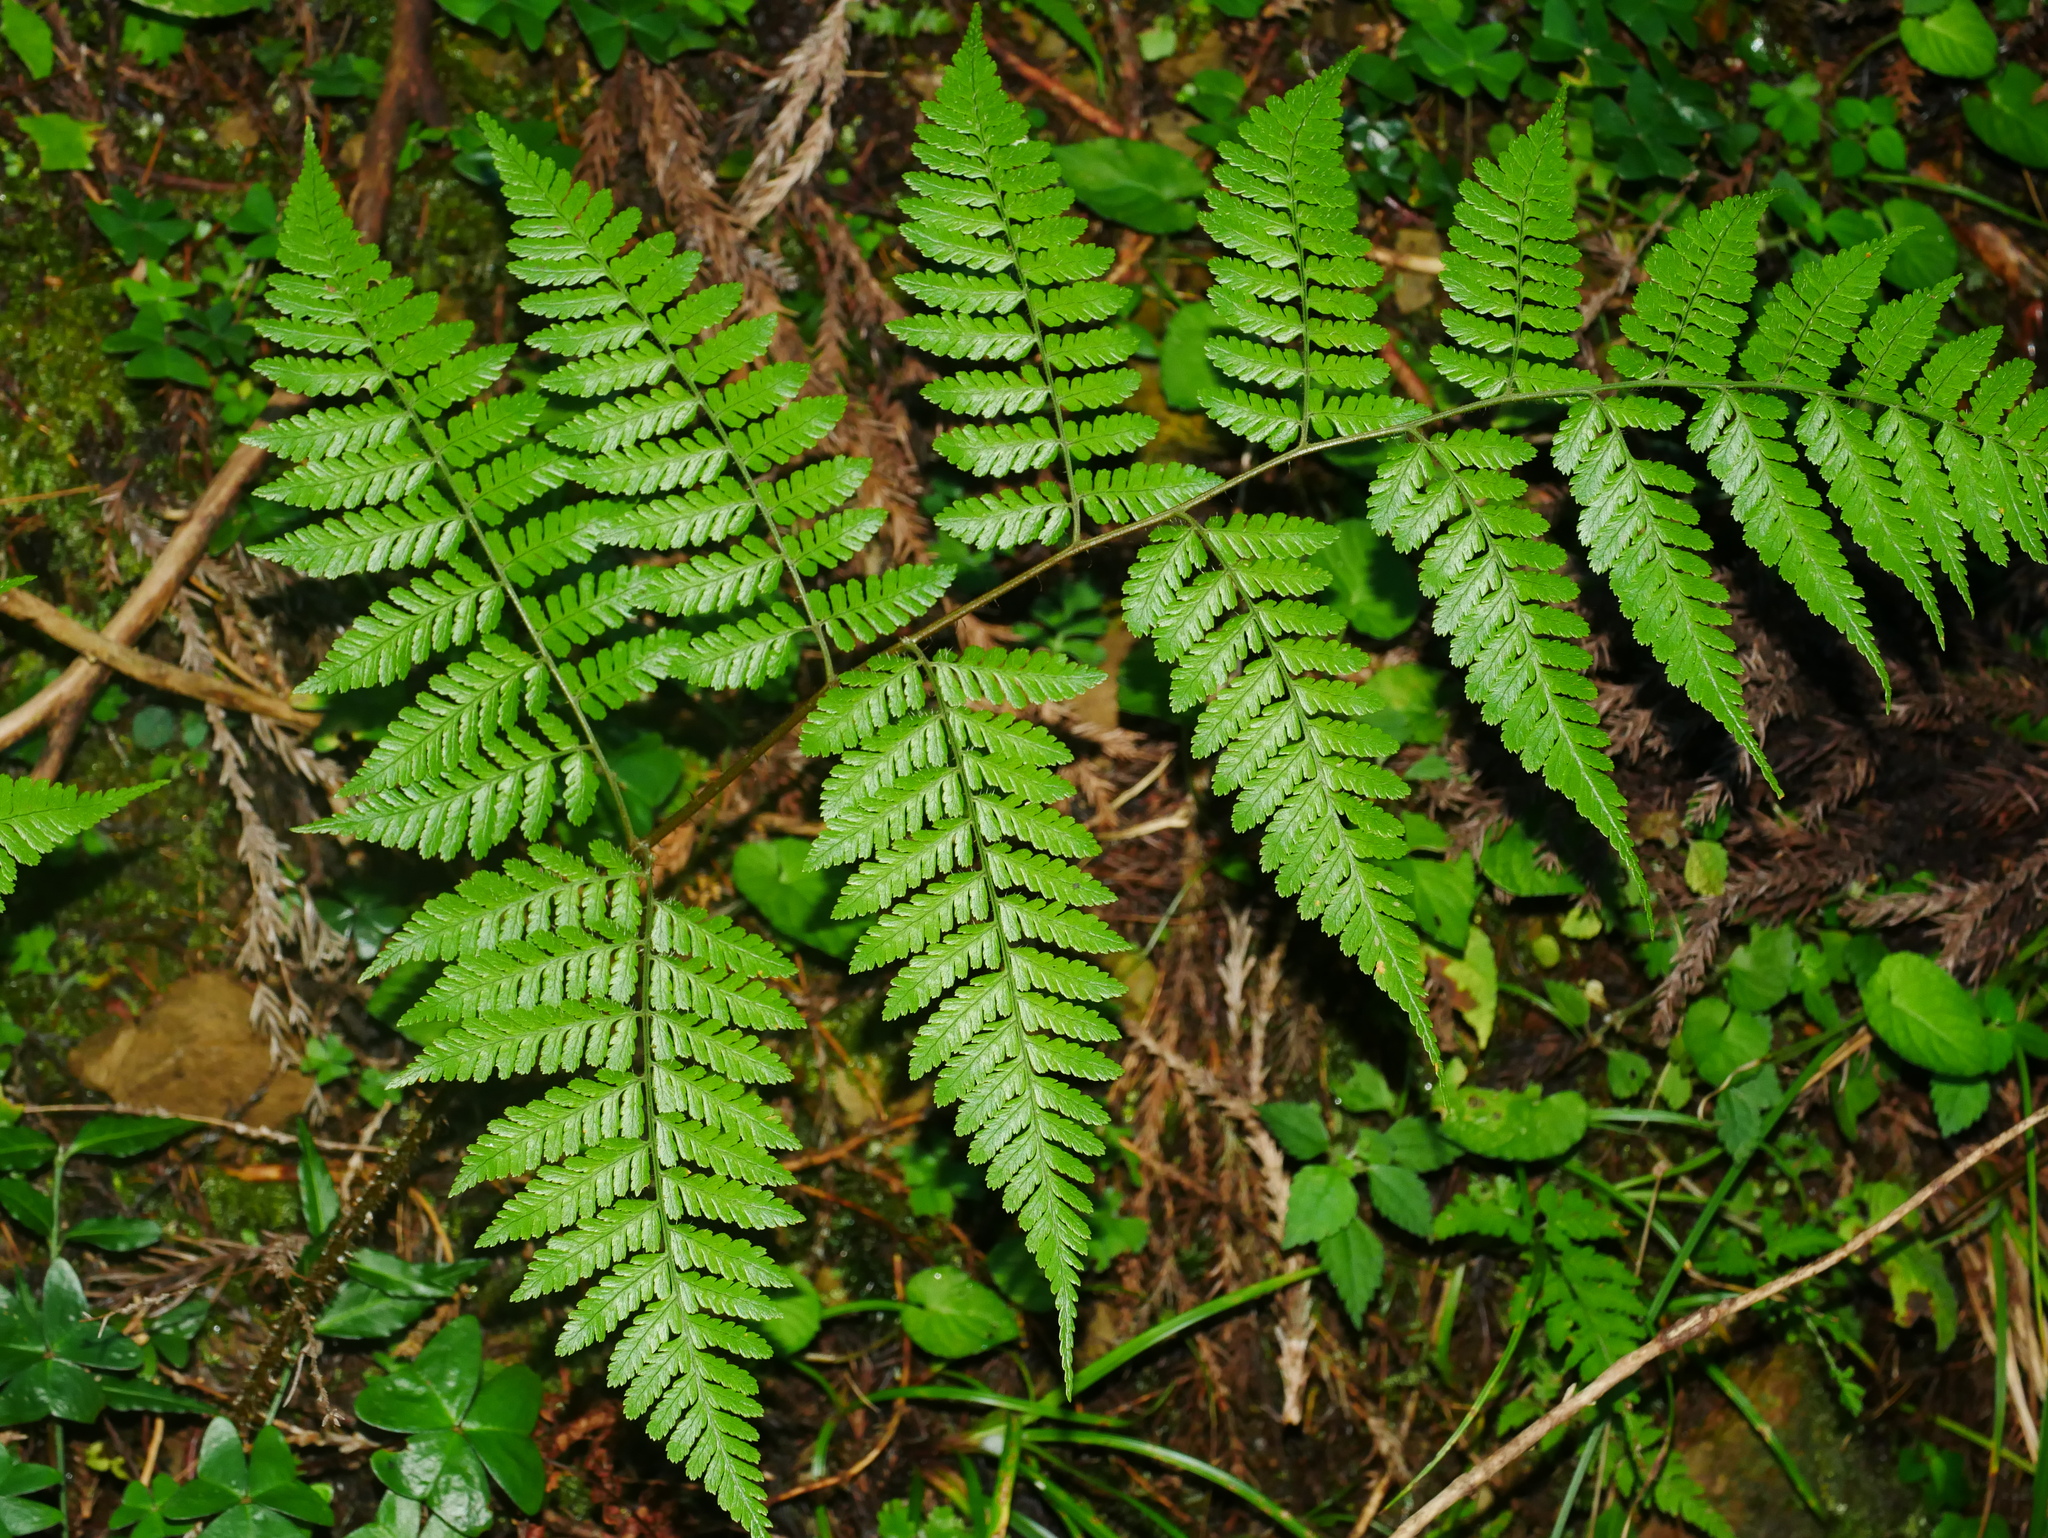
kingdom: Plantae
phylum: Tracheophyta
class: Polypodiopsida
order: Polypodiales
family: Dryopteridaceae
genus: Dryopteris
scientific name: Dryopteris hendersonii
